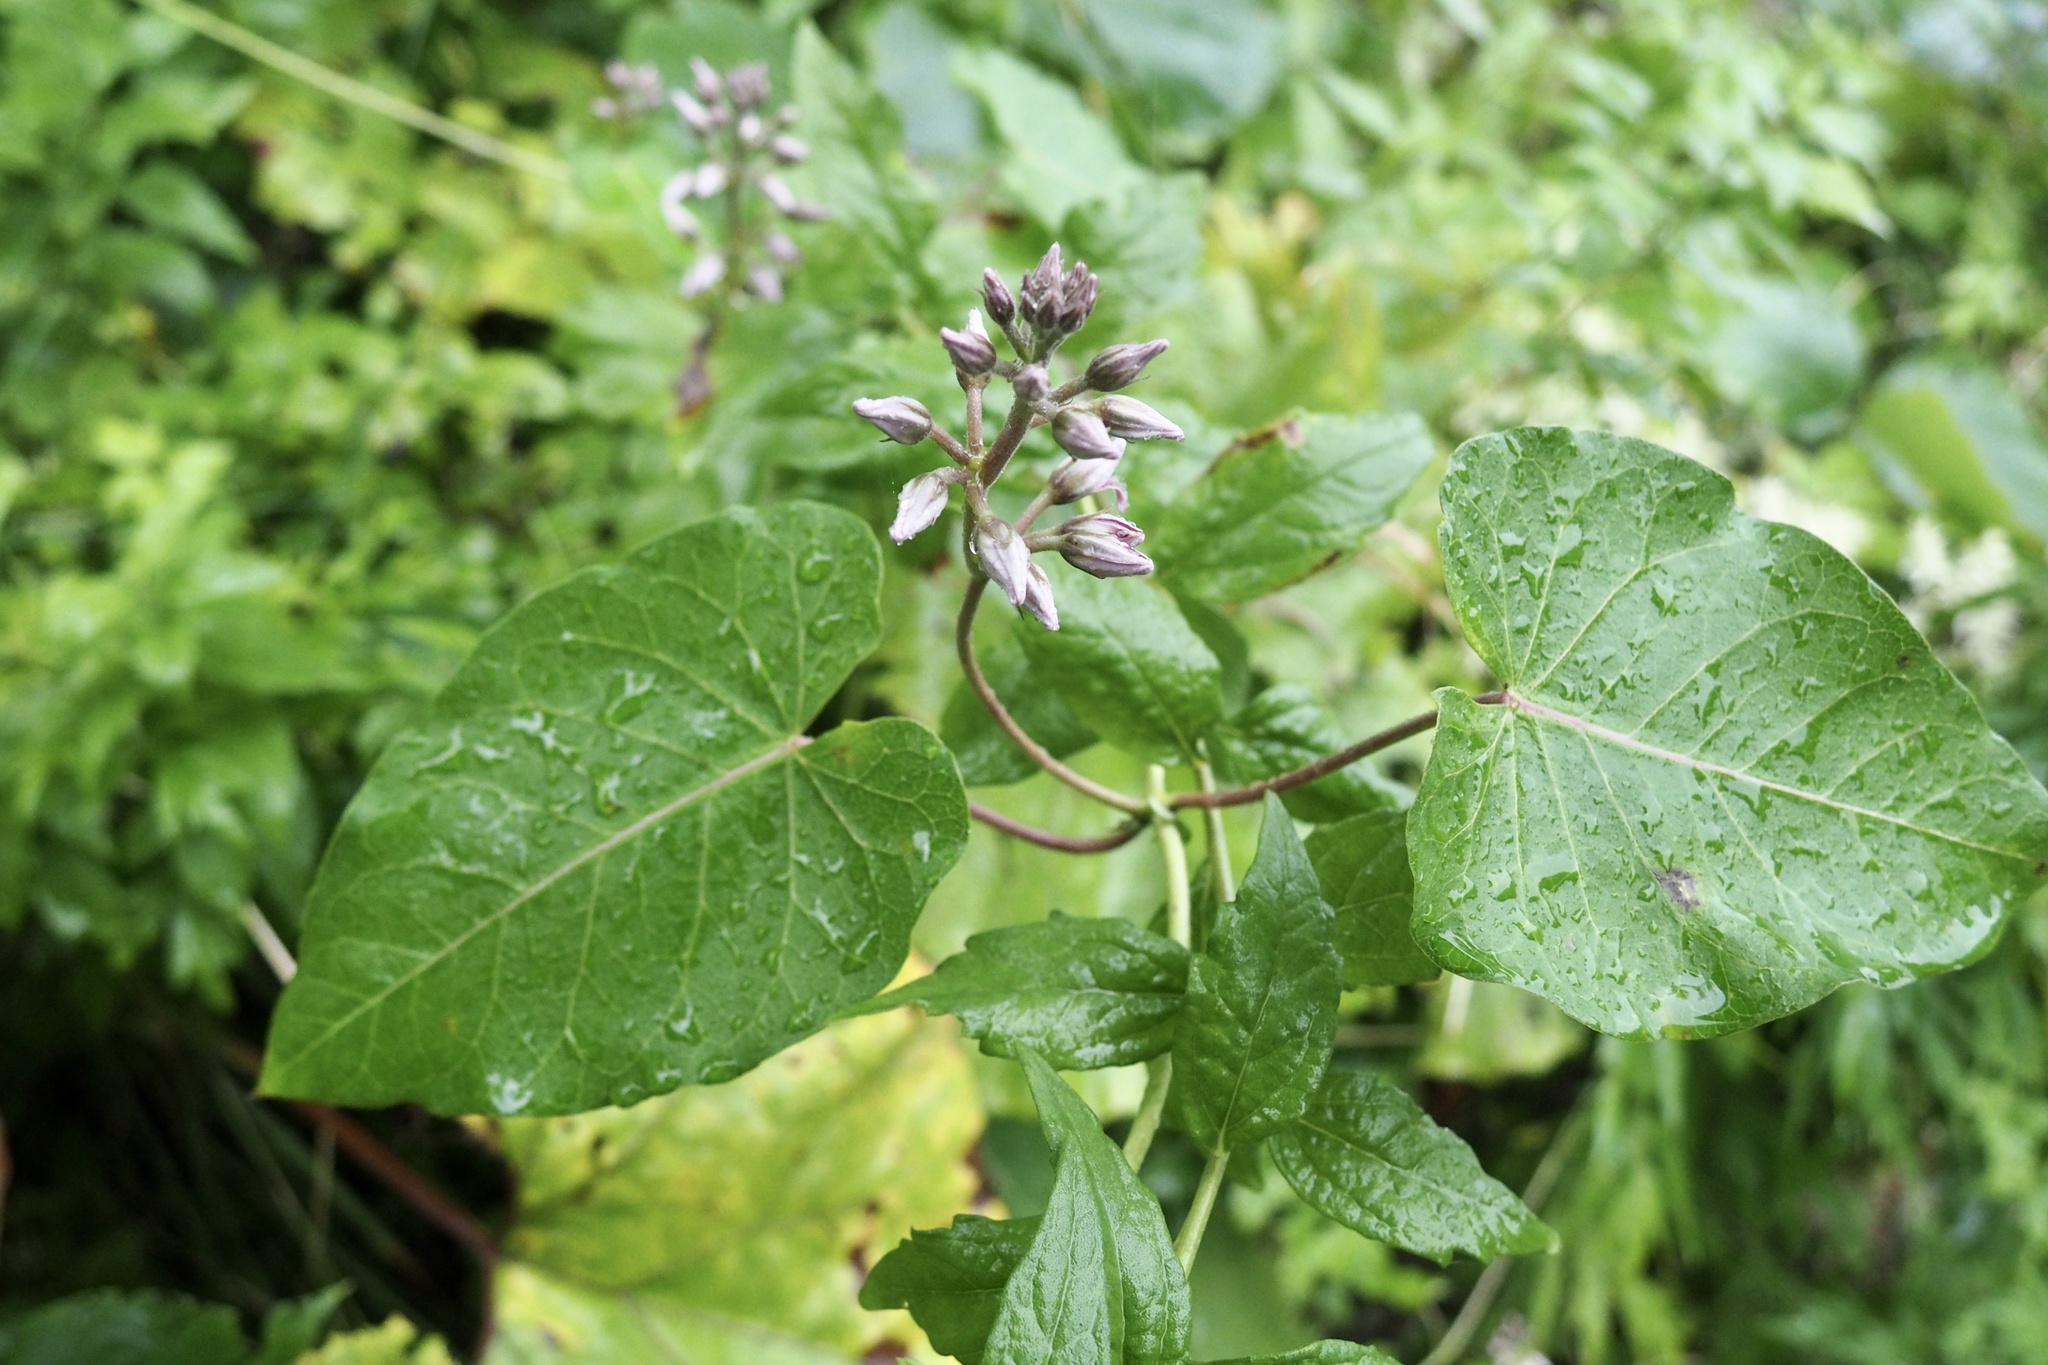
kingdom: Plantae
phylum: Tracheophyta
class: Magnoliopsida
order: Gentianales
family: Apocynaceae
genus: Cynanchum
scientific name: Cynanchum rostellatum
